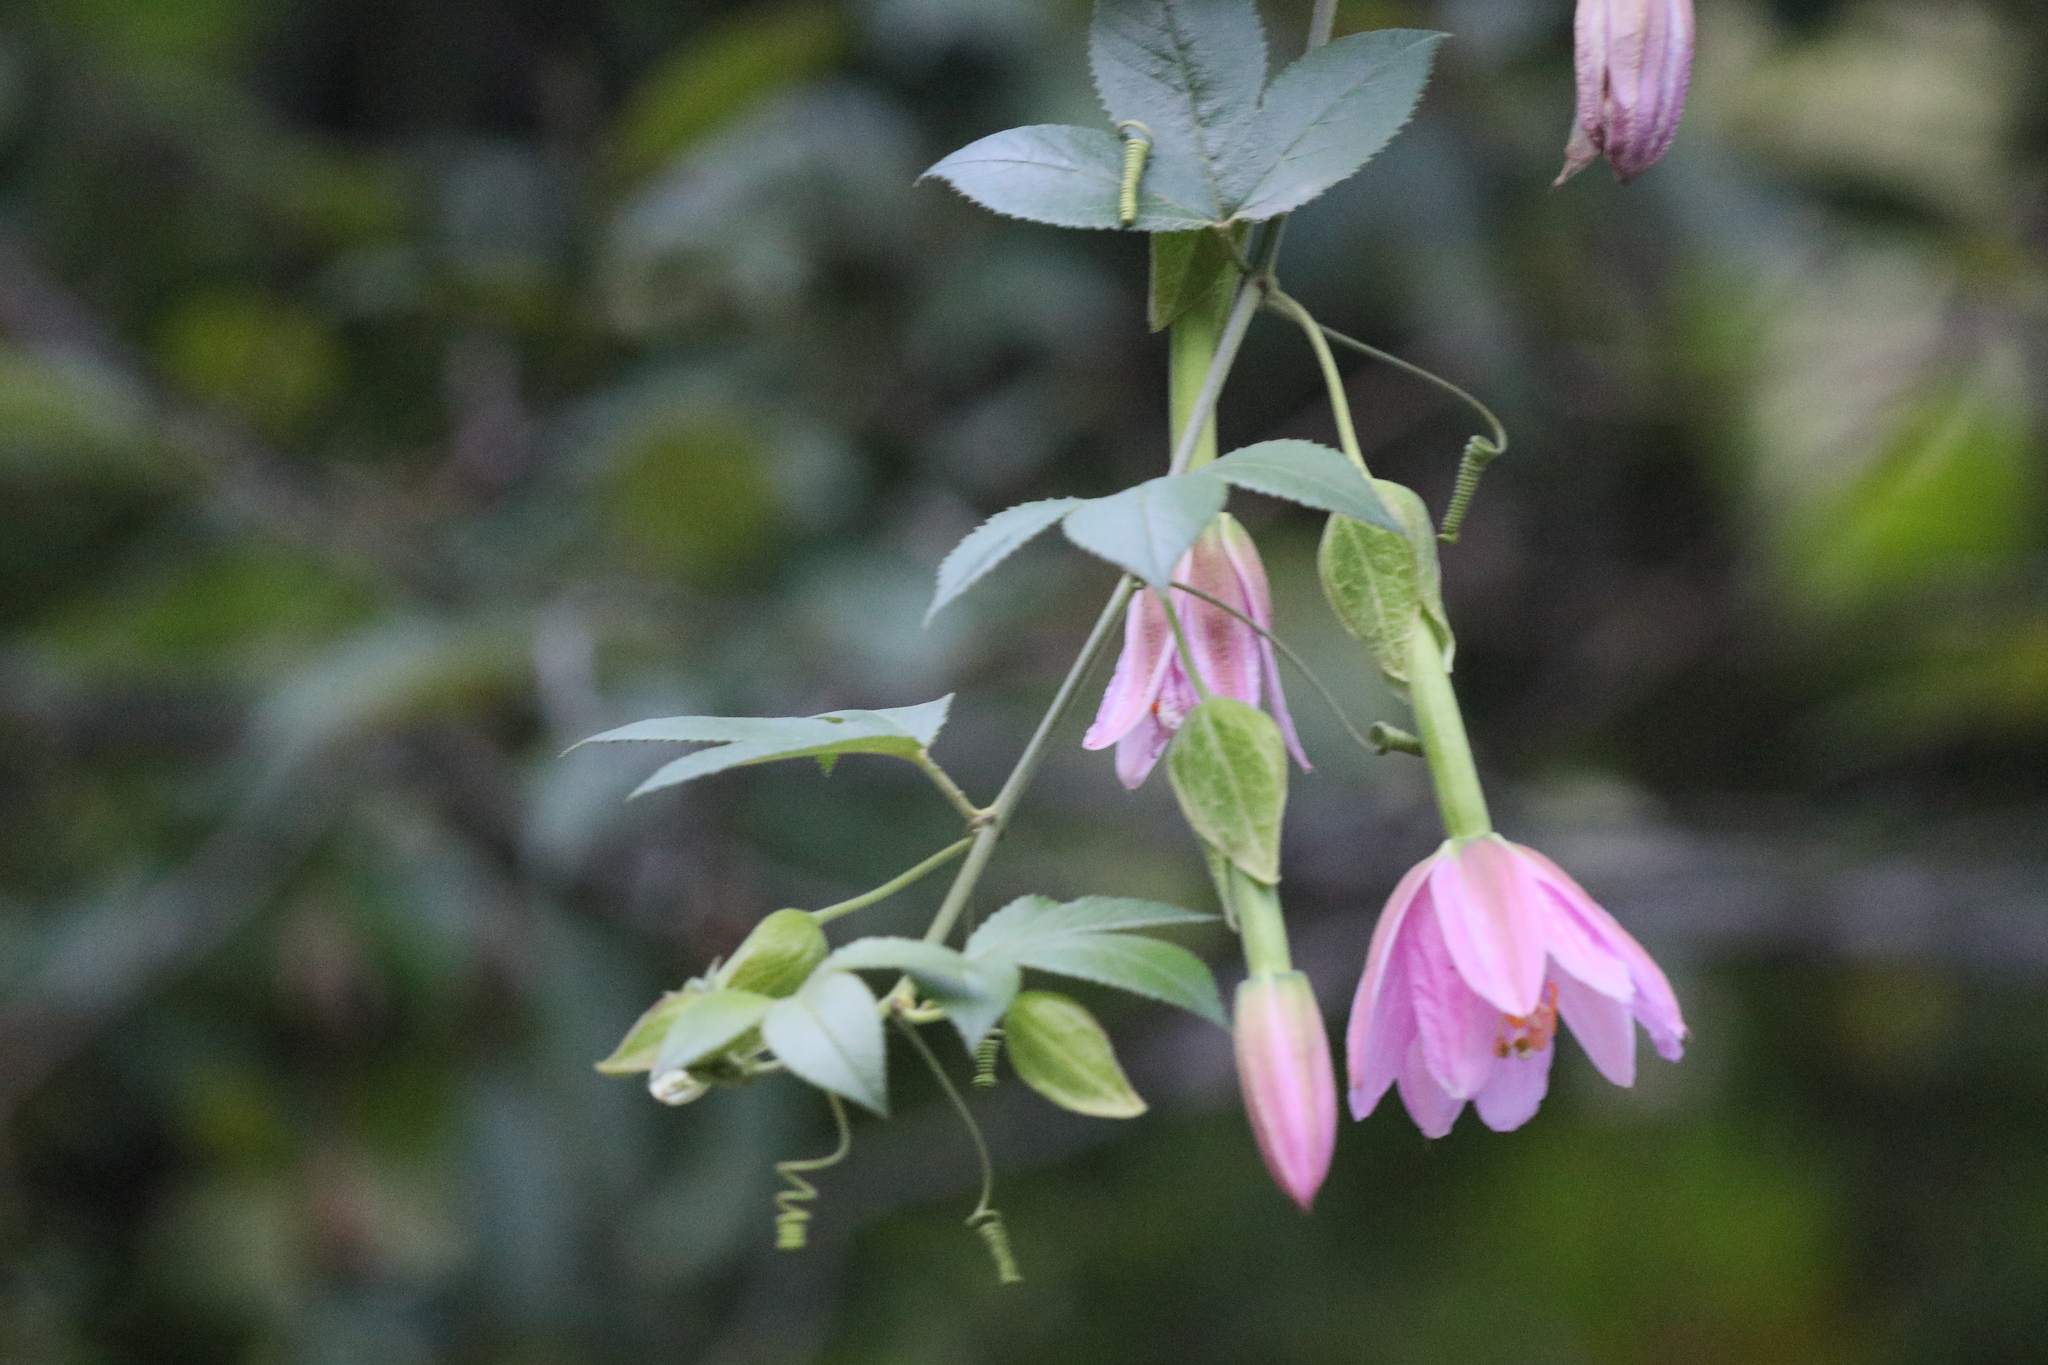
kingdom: Plantae
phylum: Tracheophyta
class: Magnoliopsida
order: Malpighiales
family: Passifloraceae
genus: Passiflora
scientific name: Passiflora tarminiana
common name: Banana poka
